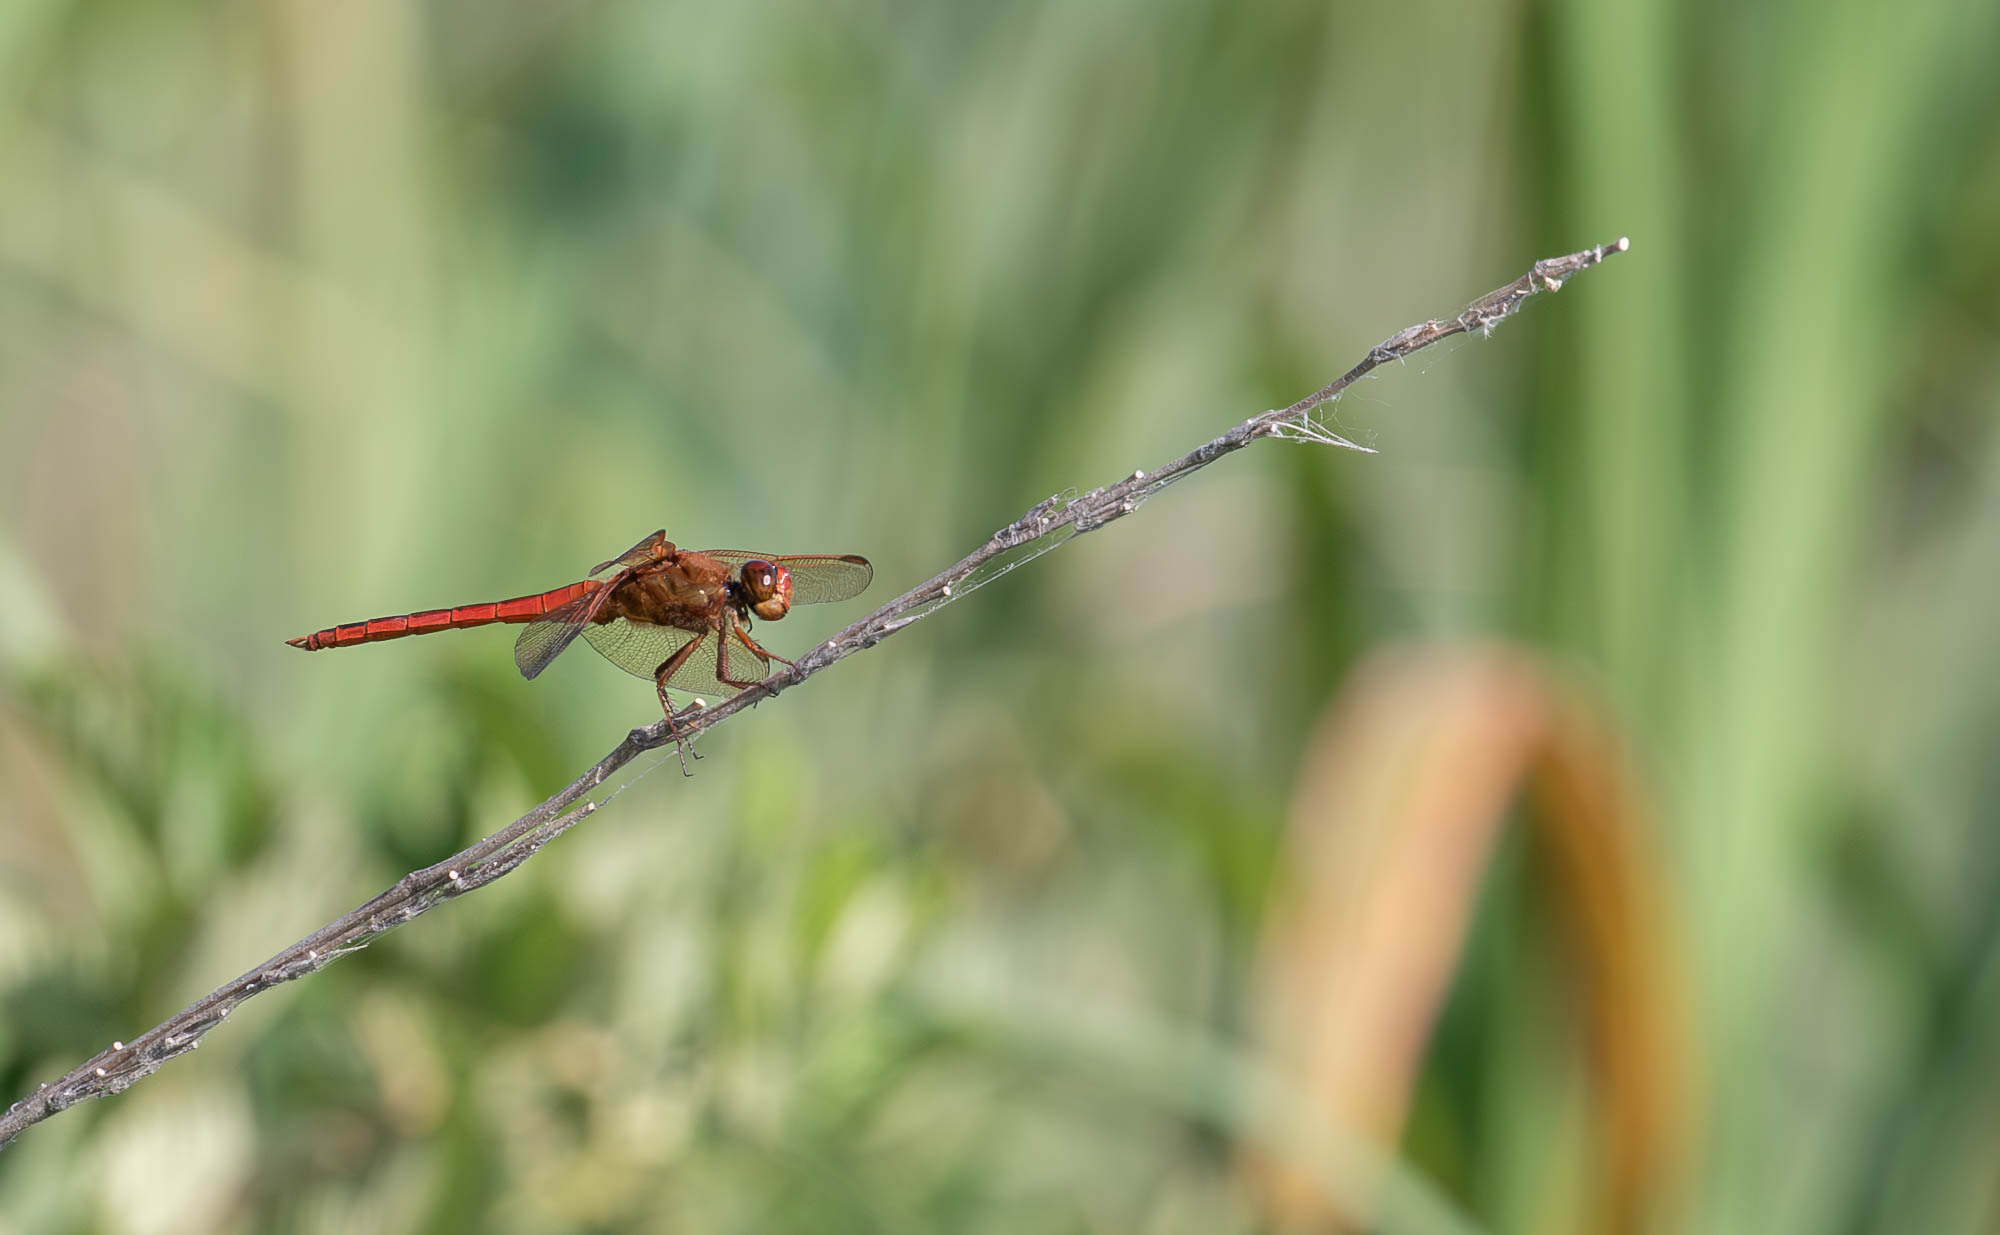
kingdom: Animalia
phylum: Arthropoda
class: Insecta
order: Odonata
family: Libellulidae
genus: Libellula
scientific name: Libellula needhami
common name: Needham's skimmer
